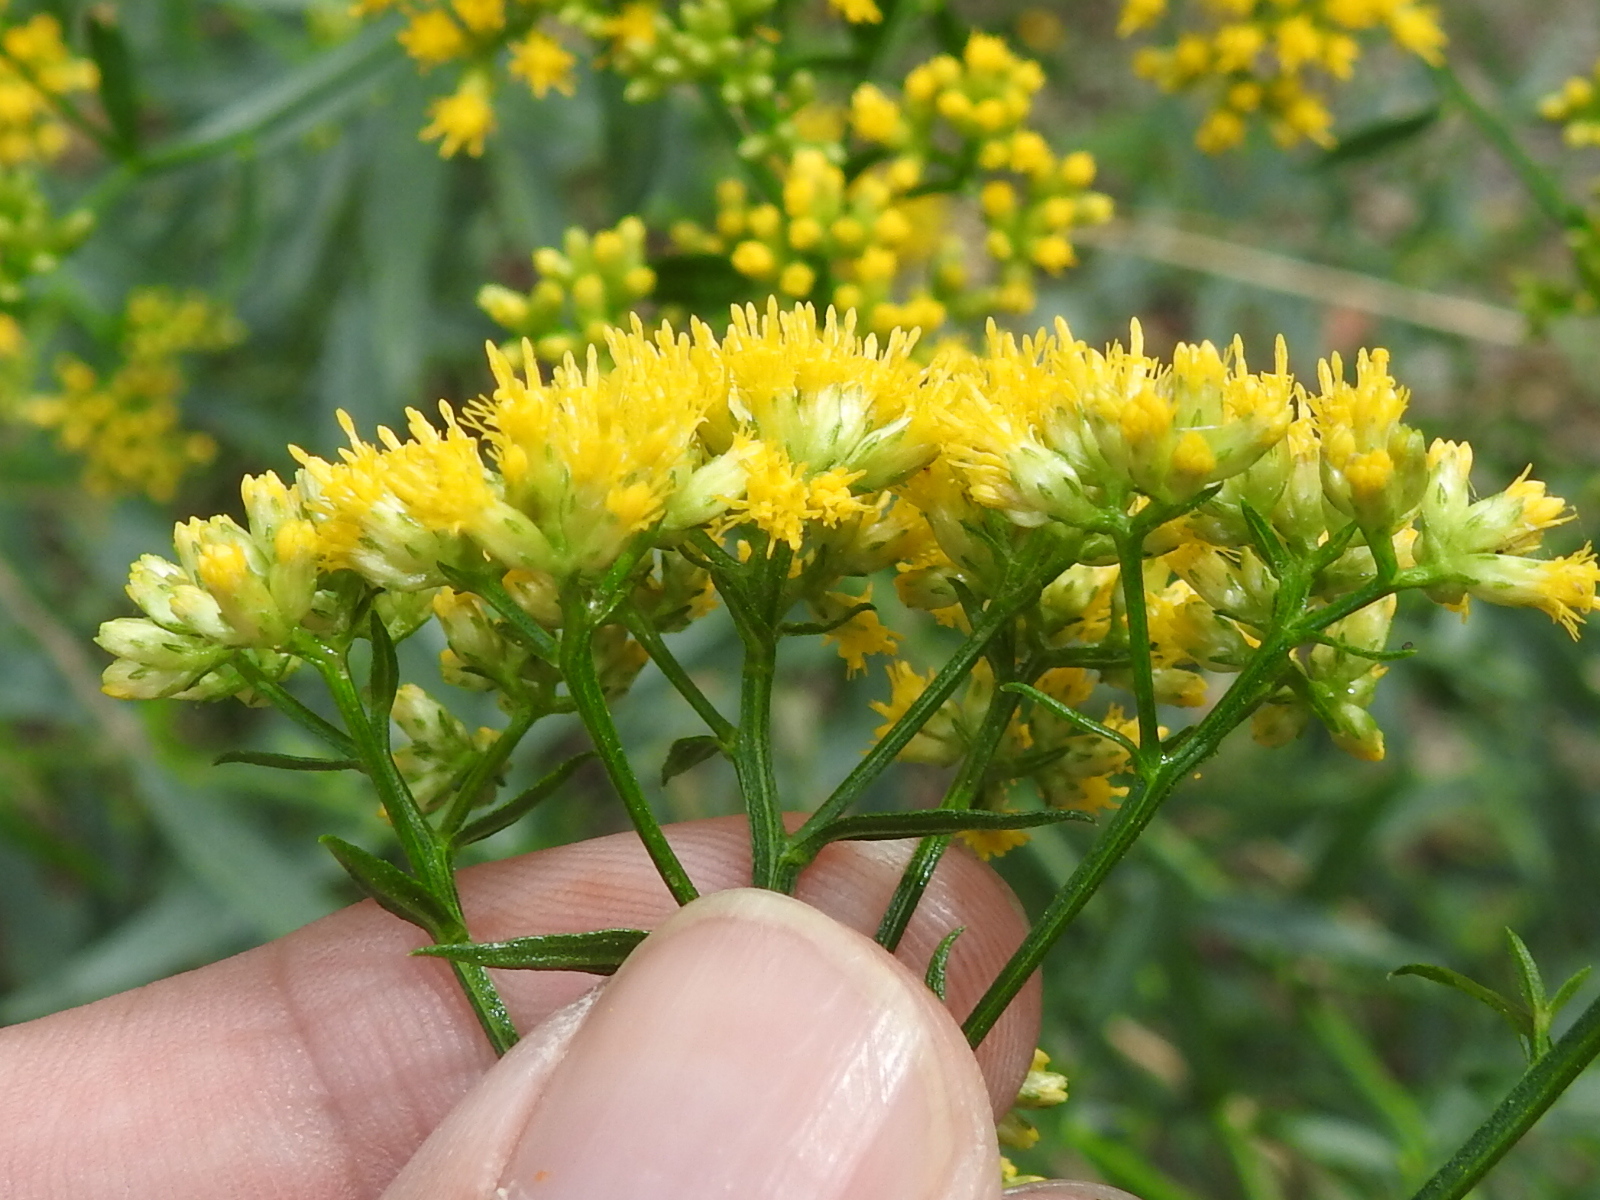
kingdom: Plantae
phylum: Tracheophyta
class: Magnoliopsida
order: Asterales
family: Asteraceae
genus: Gymnosperma
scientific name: Gymnosperma glutinosum
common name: Gumhead
